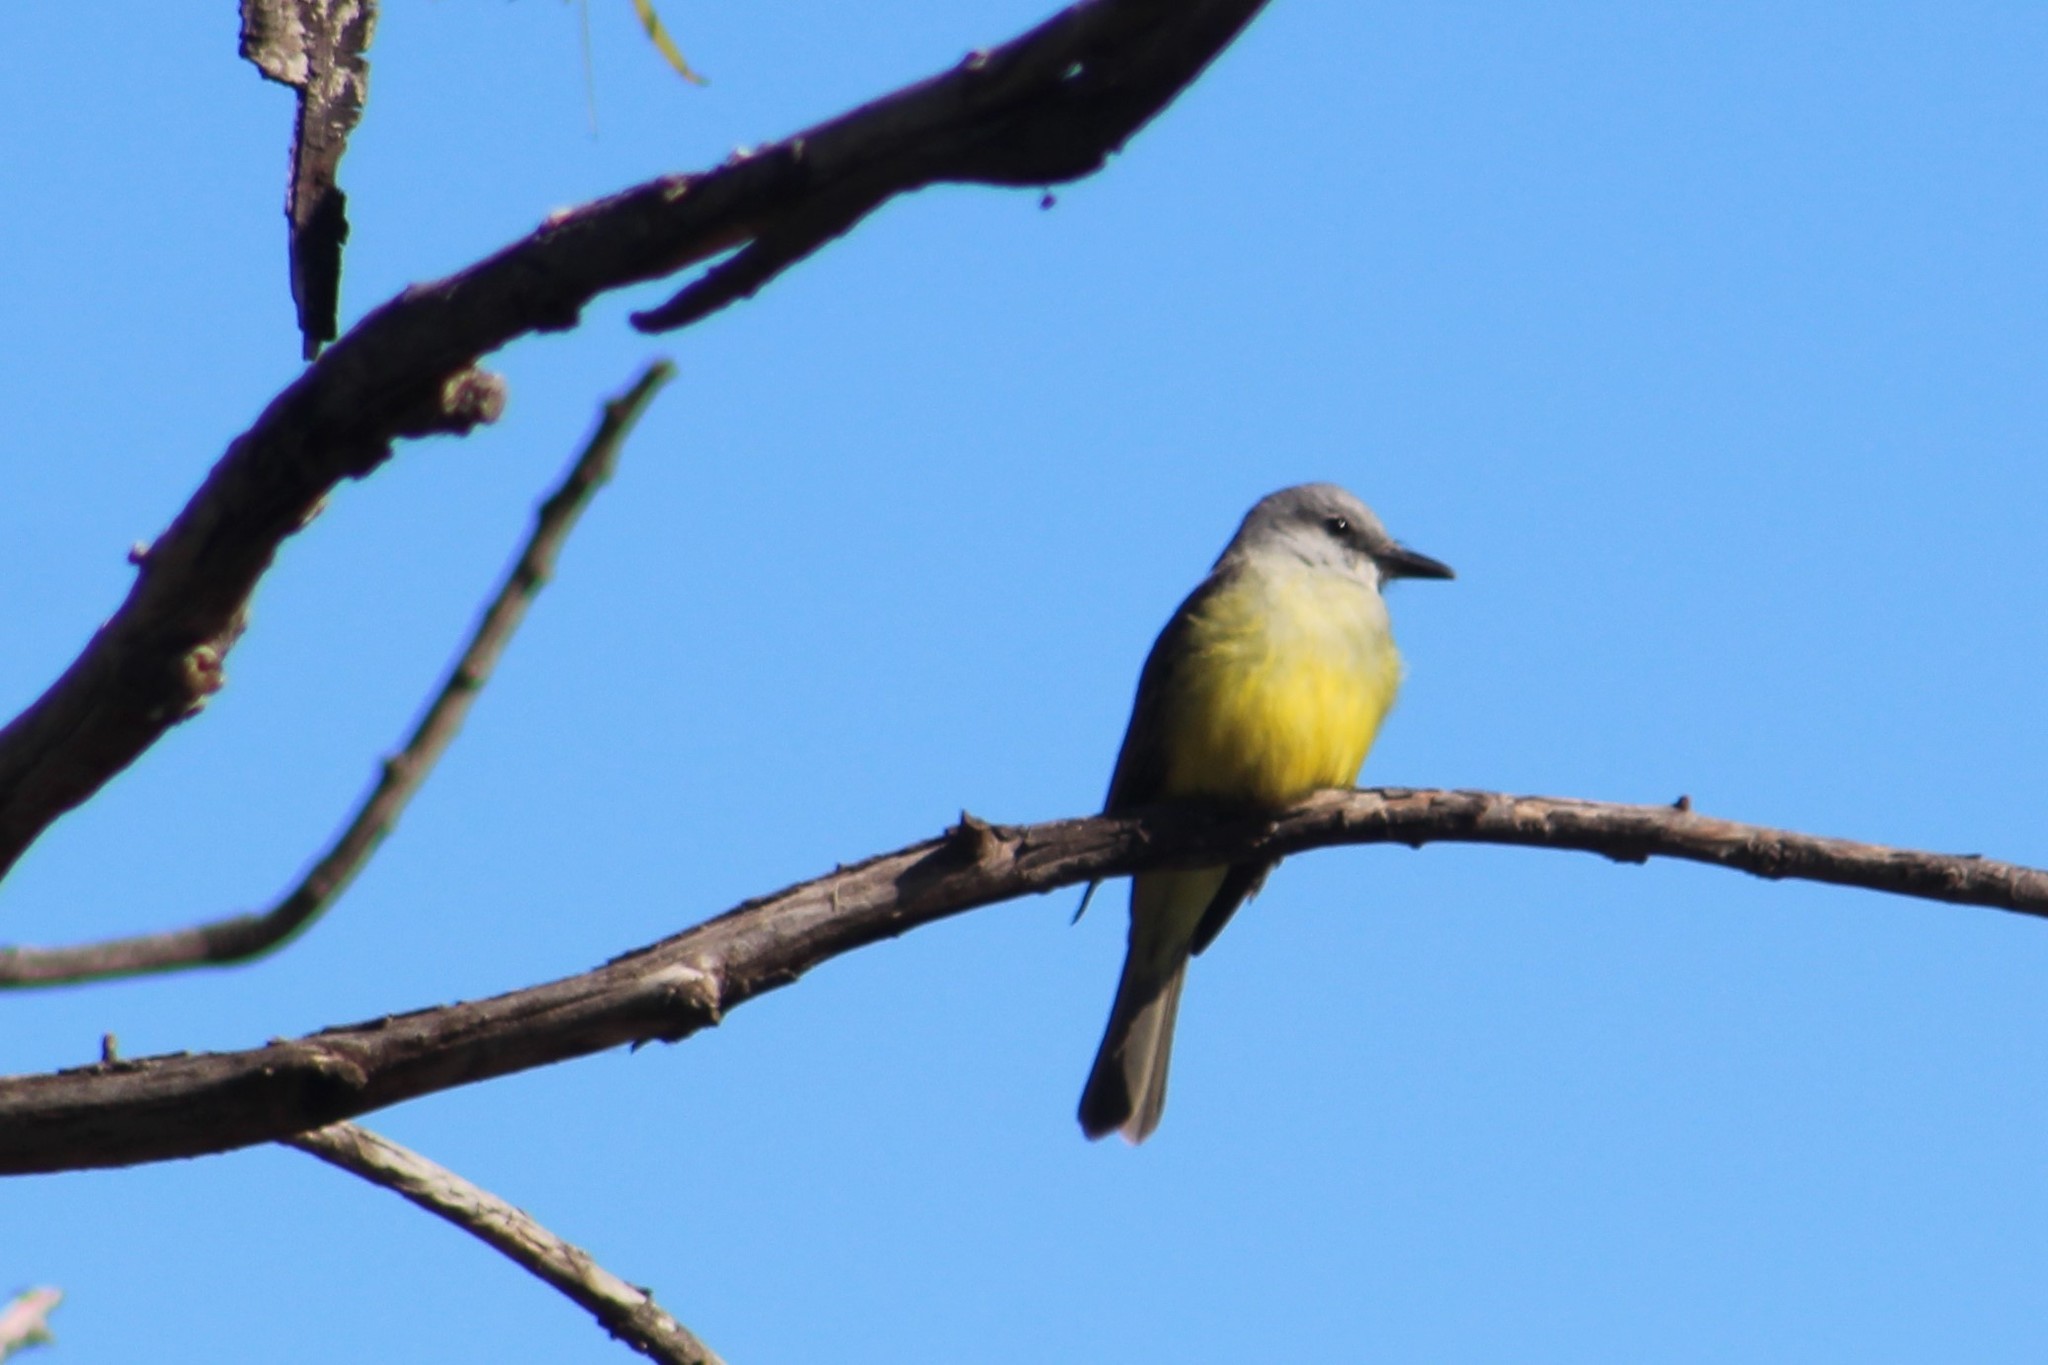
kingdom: Animalia
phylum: Chordata
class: Aves
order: Passeriformes
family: Tyrannidae
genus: Tyrannus
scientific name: Tyrannus melancholicus
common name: Tropical kingbird
